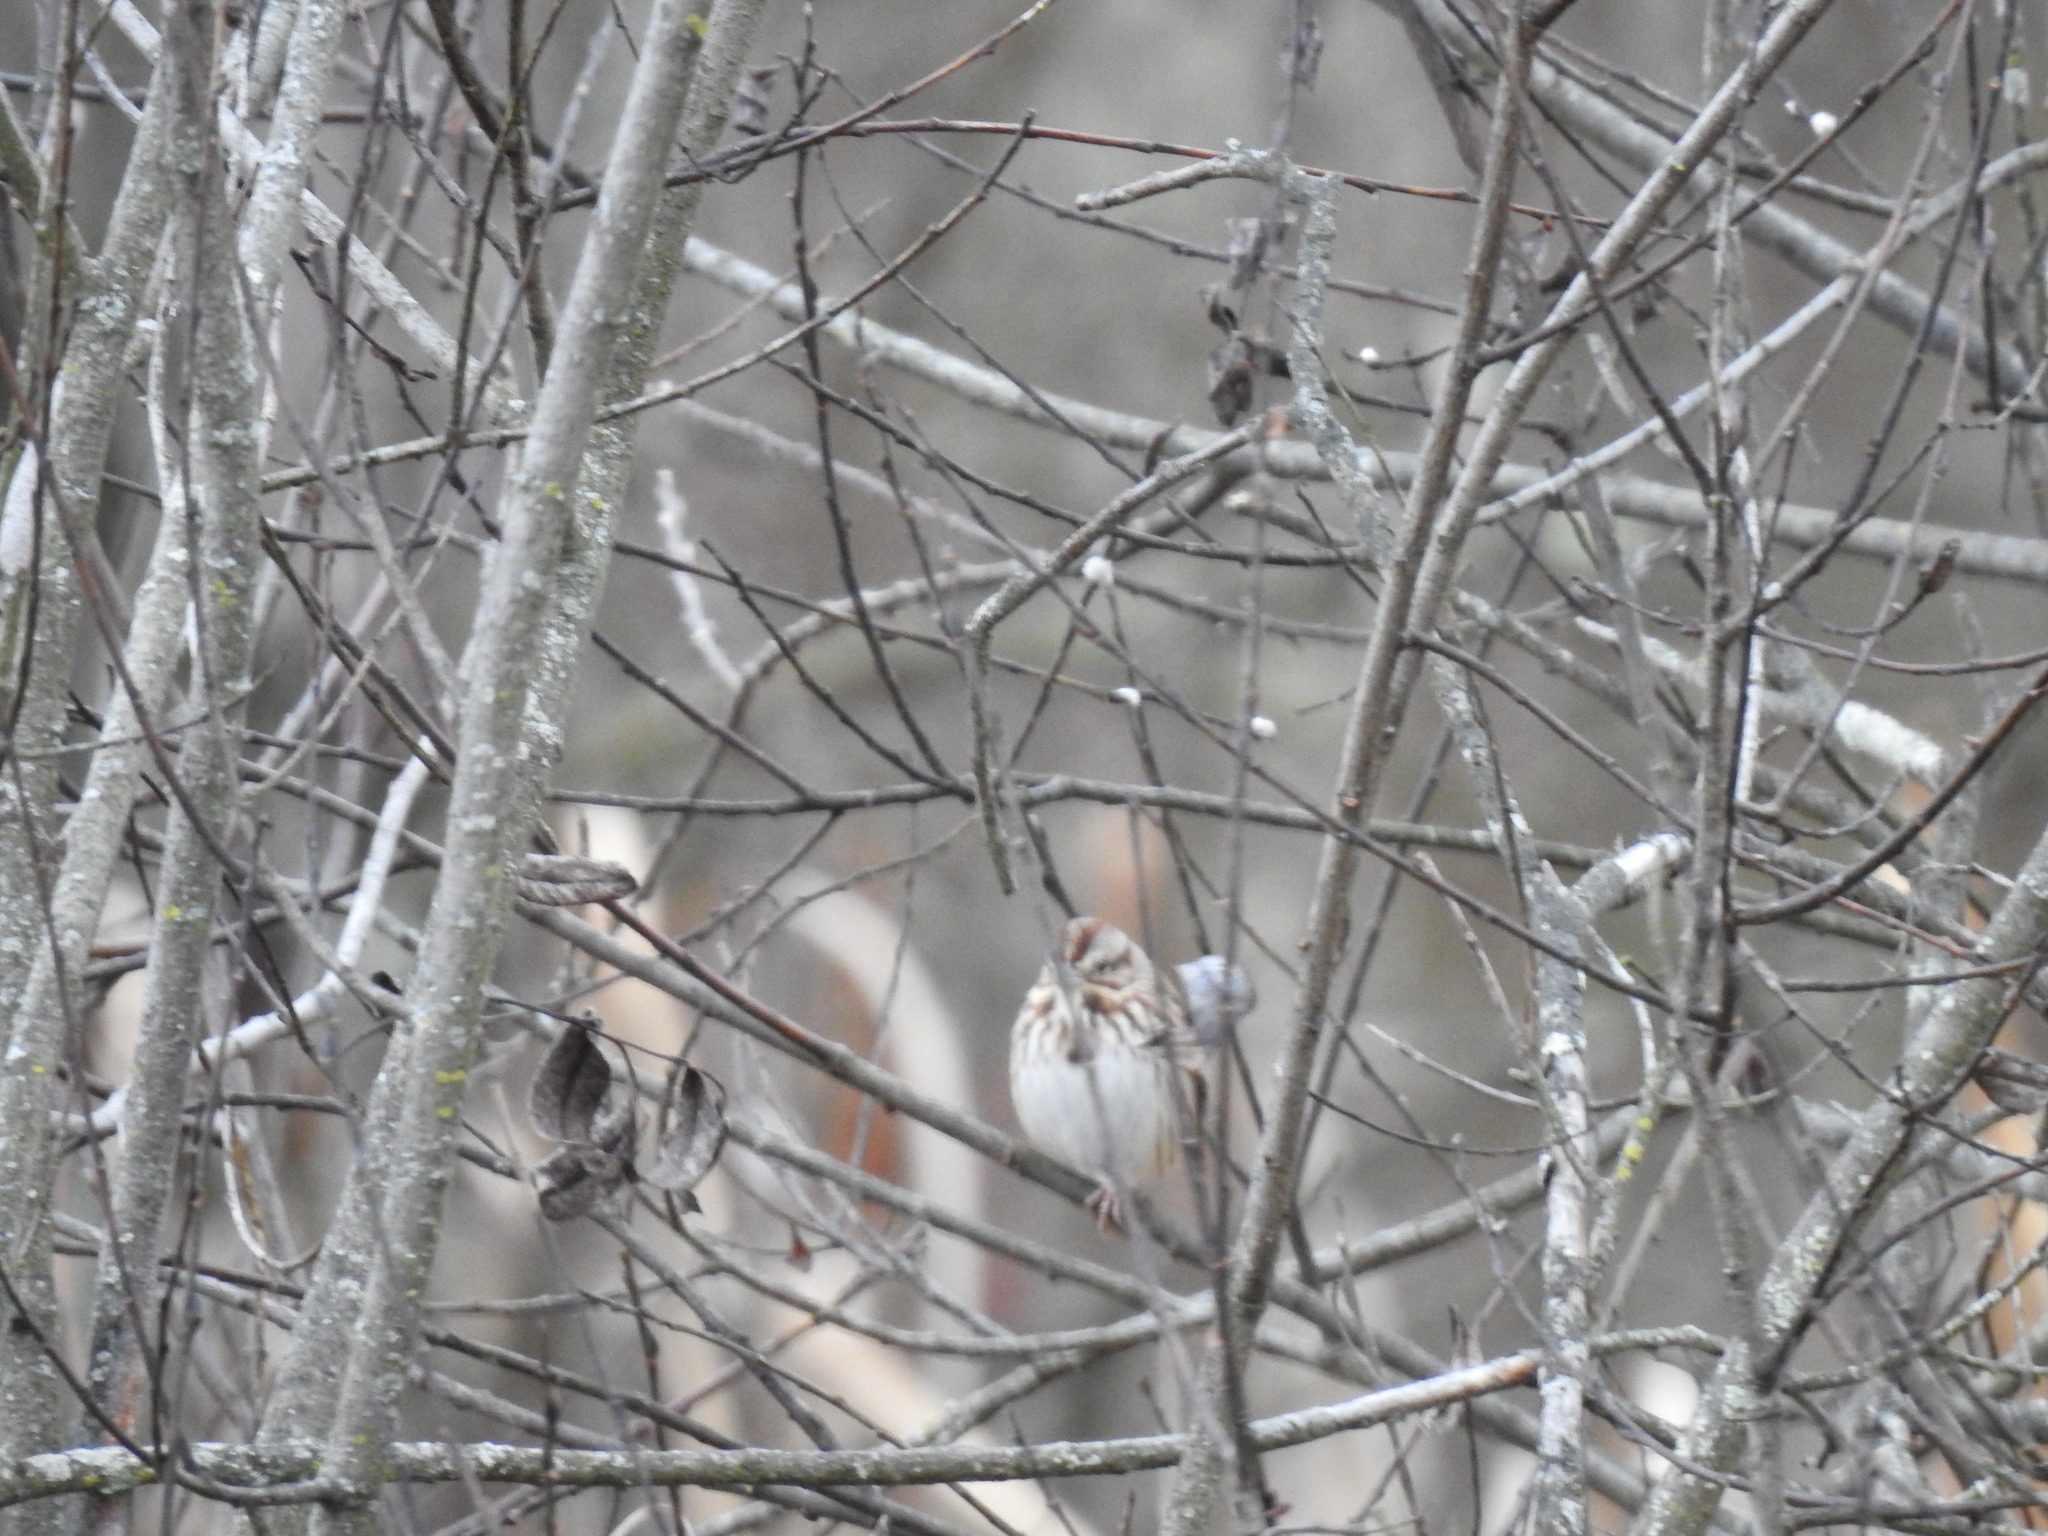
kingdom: Animalia
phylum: Chordata
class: Aves
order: Passeriformes
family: Passerellidae
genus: Melospiza
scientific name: Melospiza melodia
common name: Song sparrow
